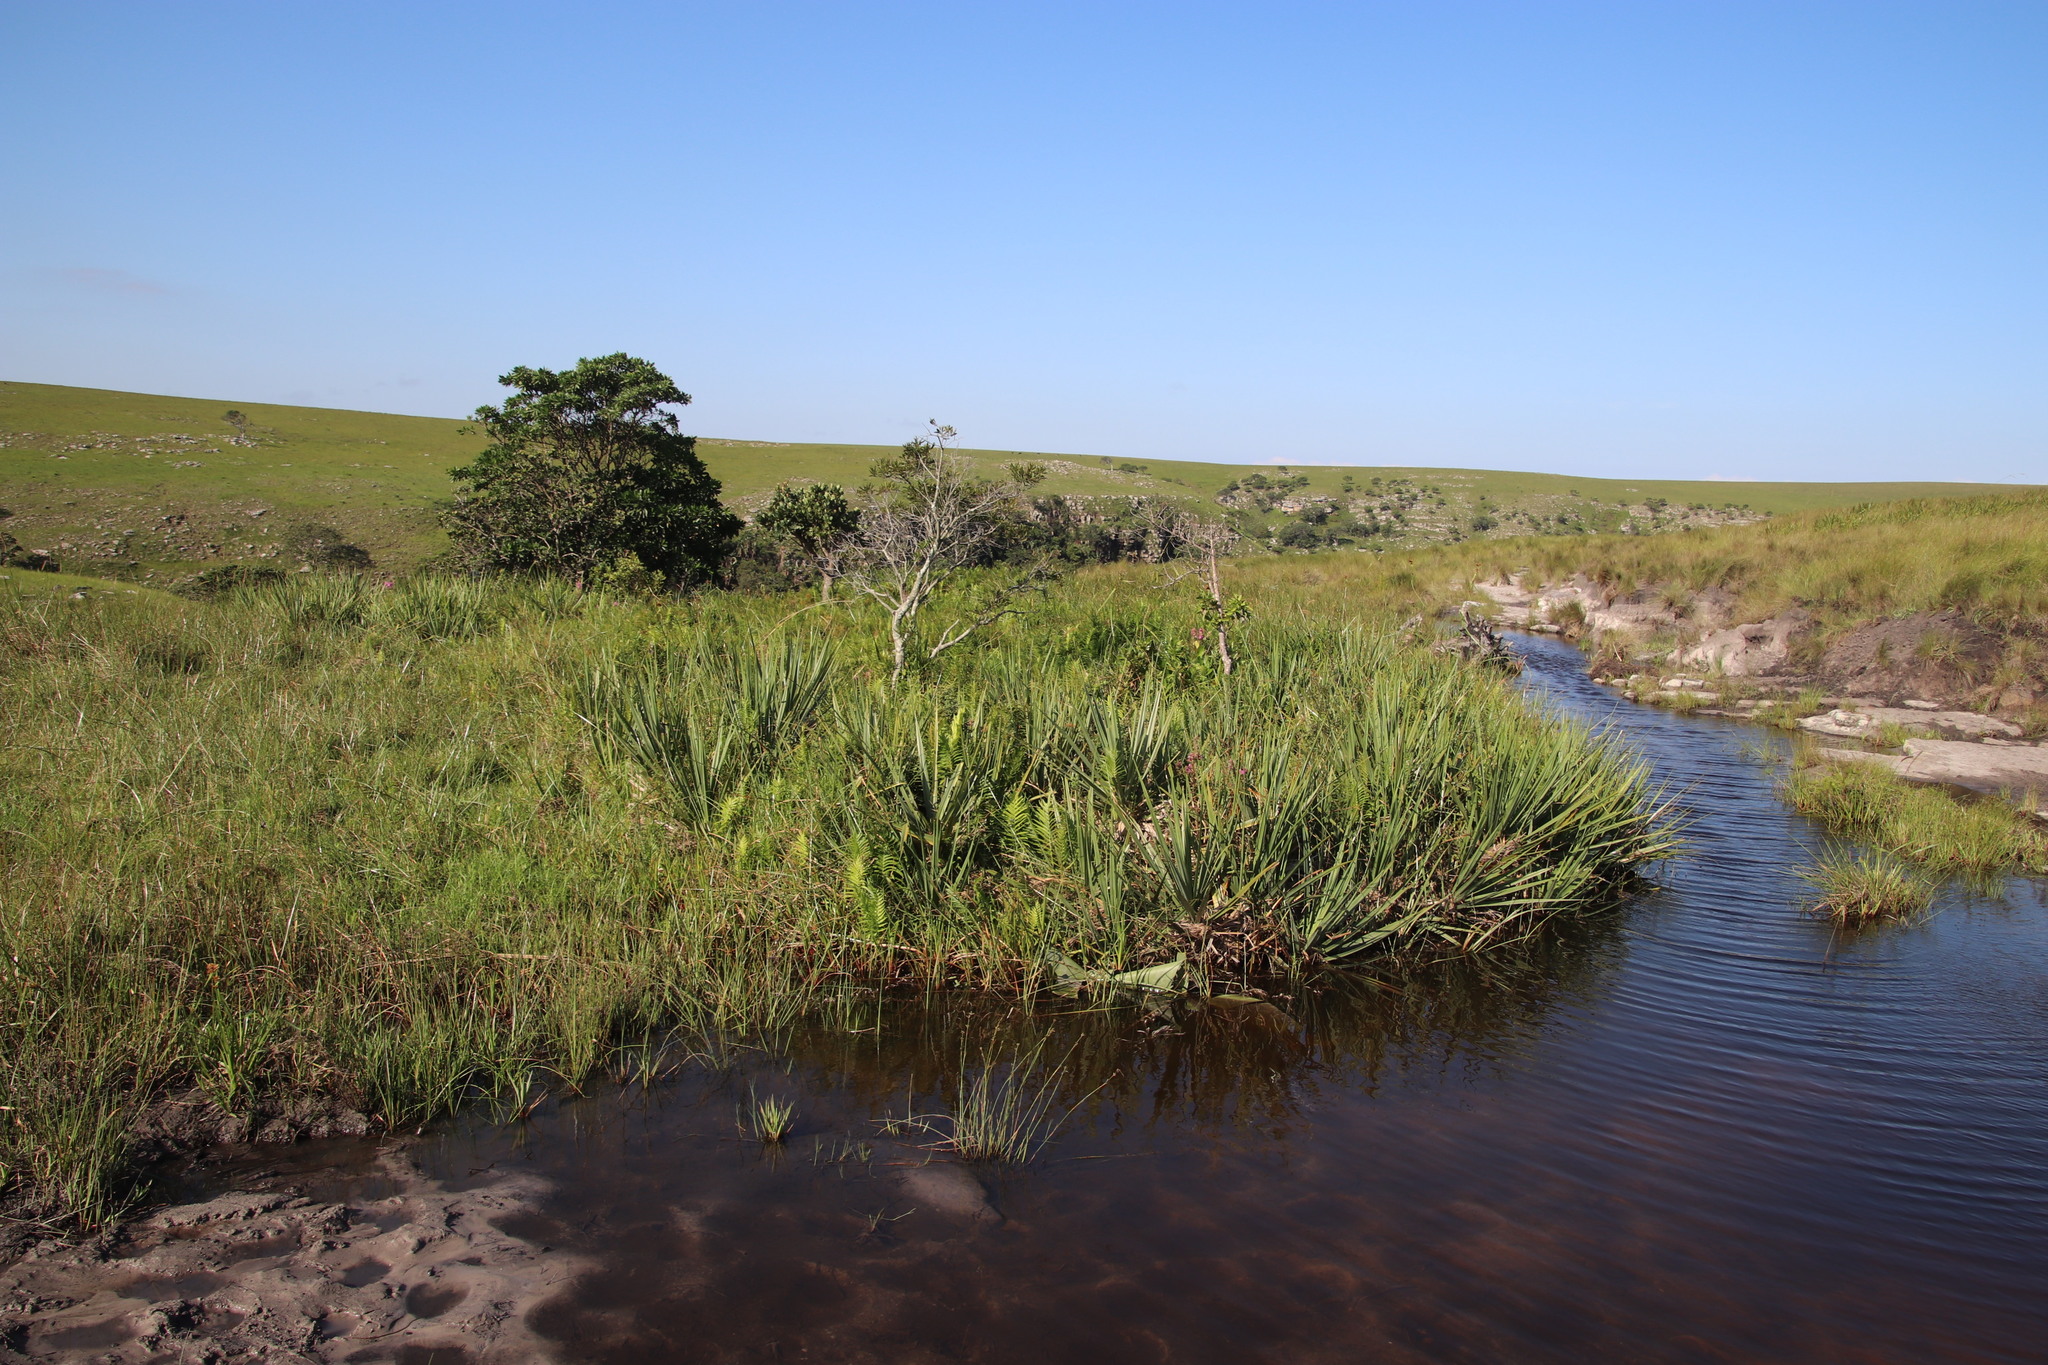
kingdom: Plantae
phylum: Tracheophyta
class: Liliopsida
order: Poales
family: Thurniaceae
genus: Prionium
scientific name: Prionium serratum
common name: Palmiet
